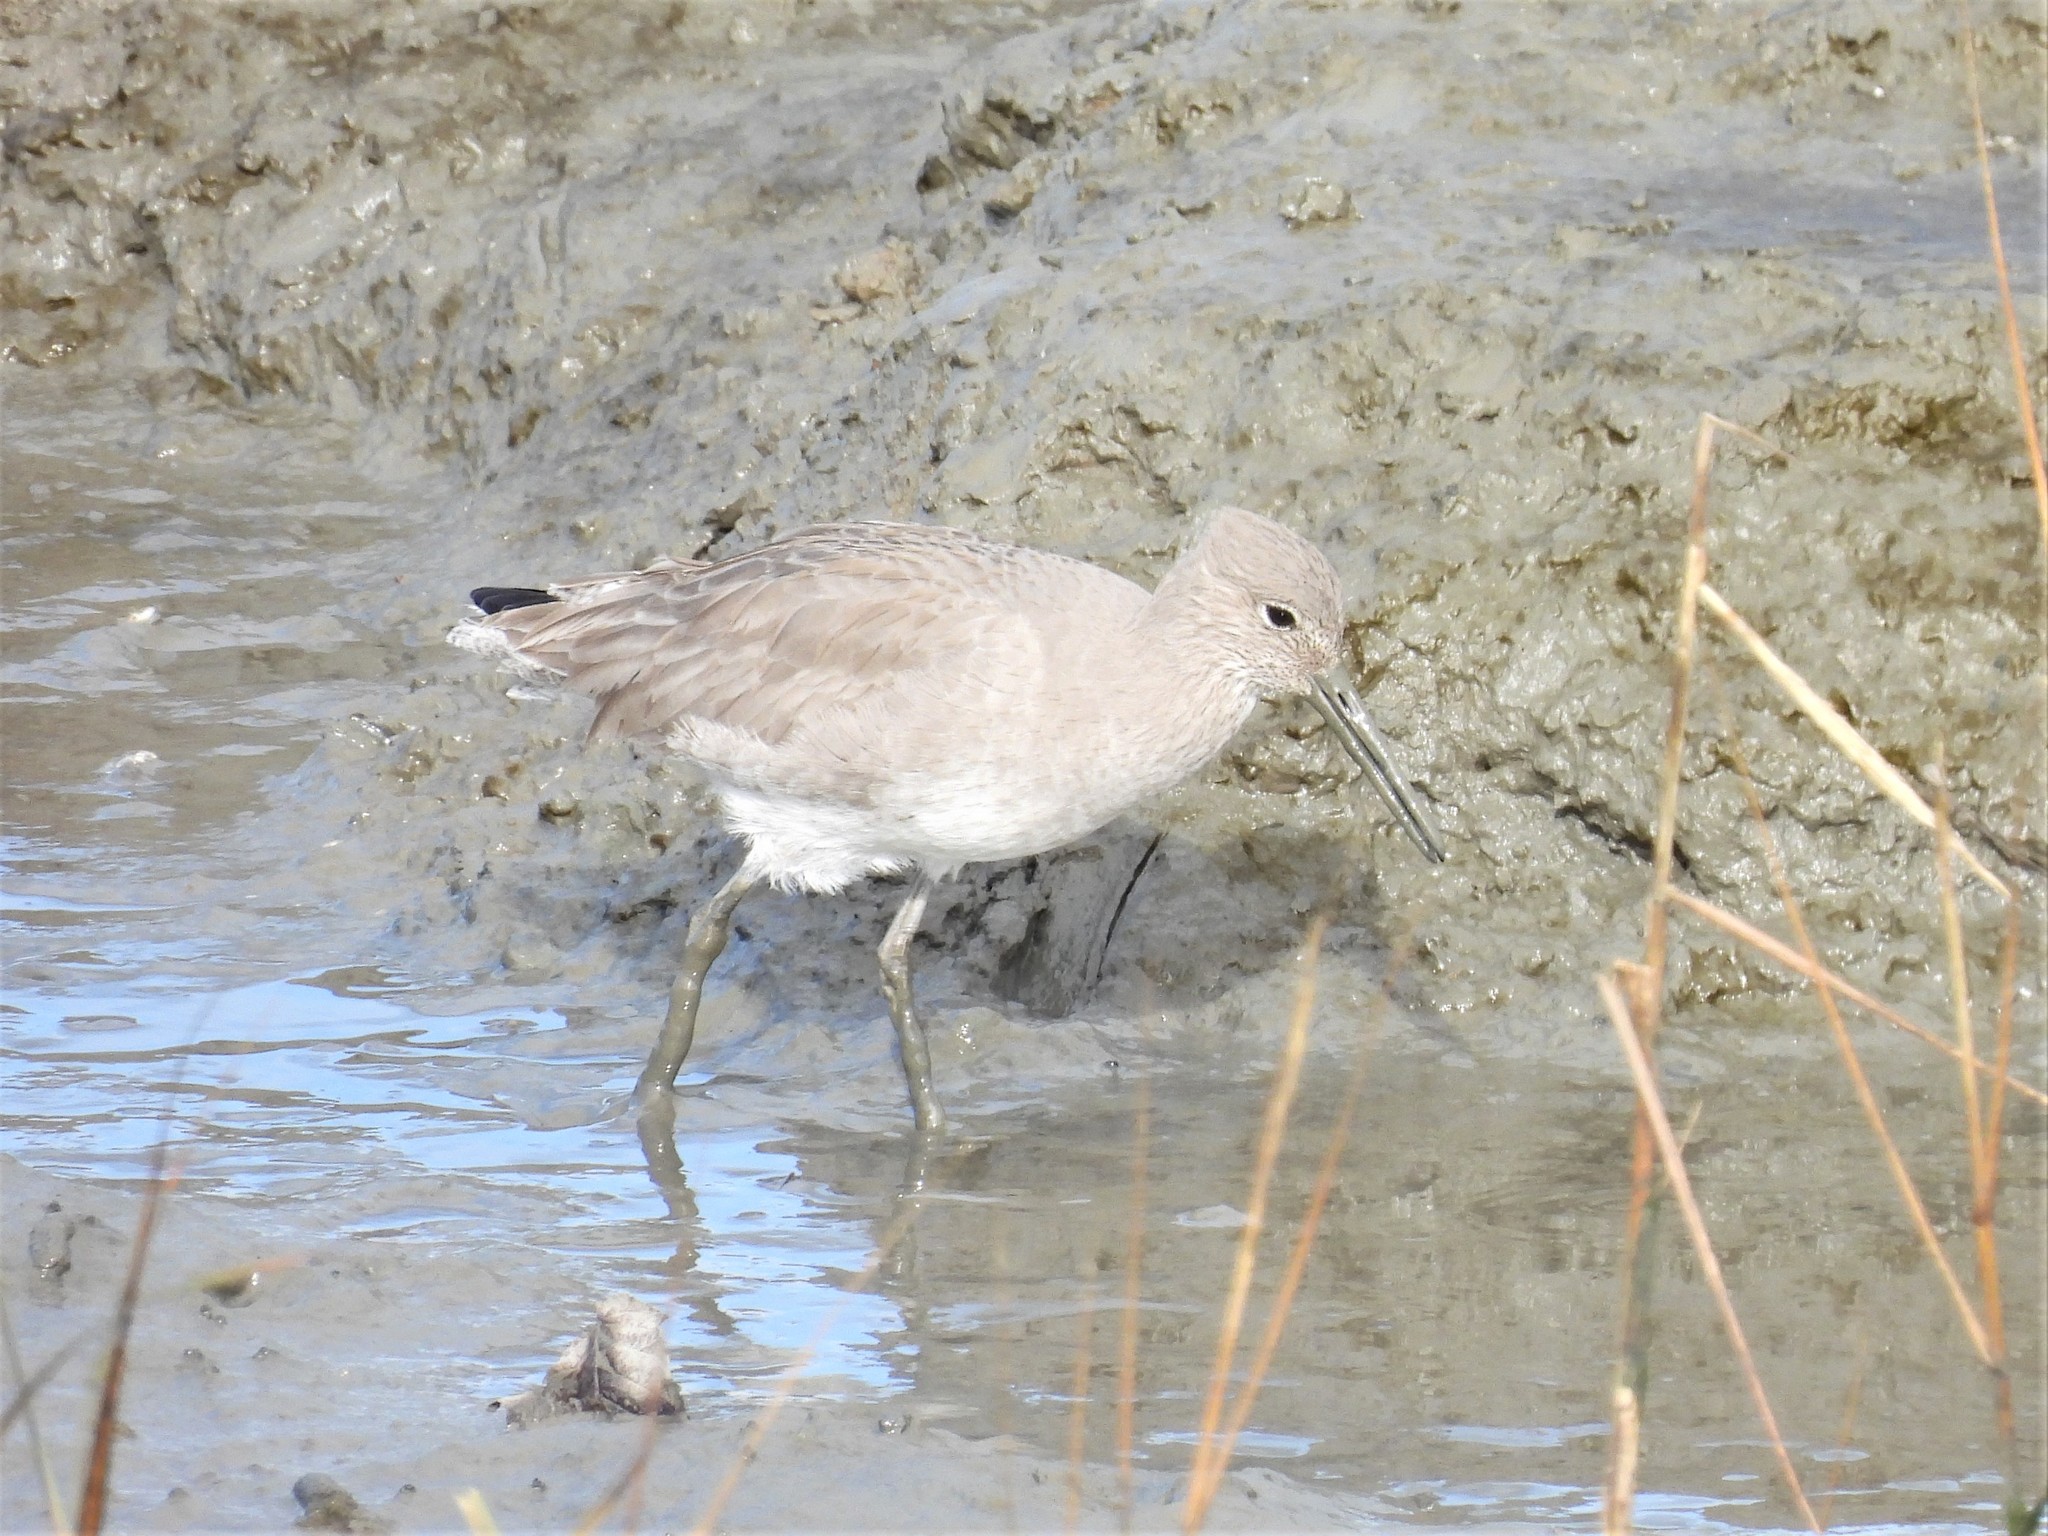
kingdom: Animalia
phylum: Chordata
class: Aves
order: Charadriiformes
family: Scolopacidae
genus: Tringa
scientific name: Tringa semipalmata
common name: Willet
